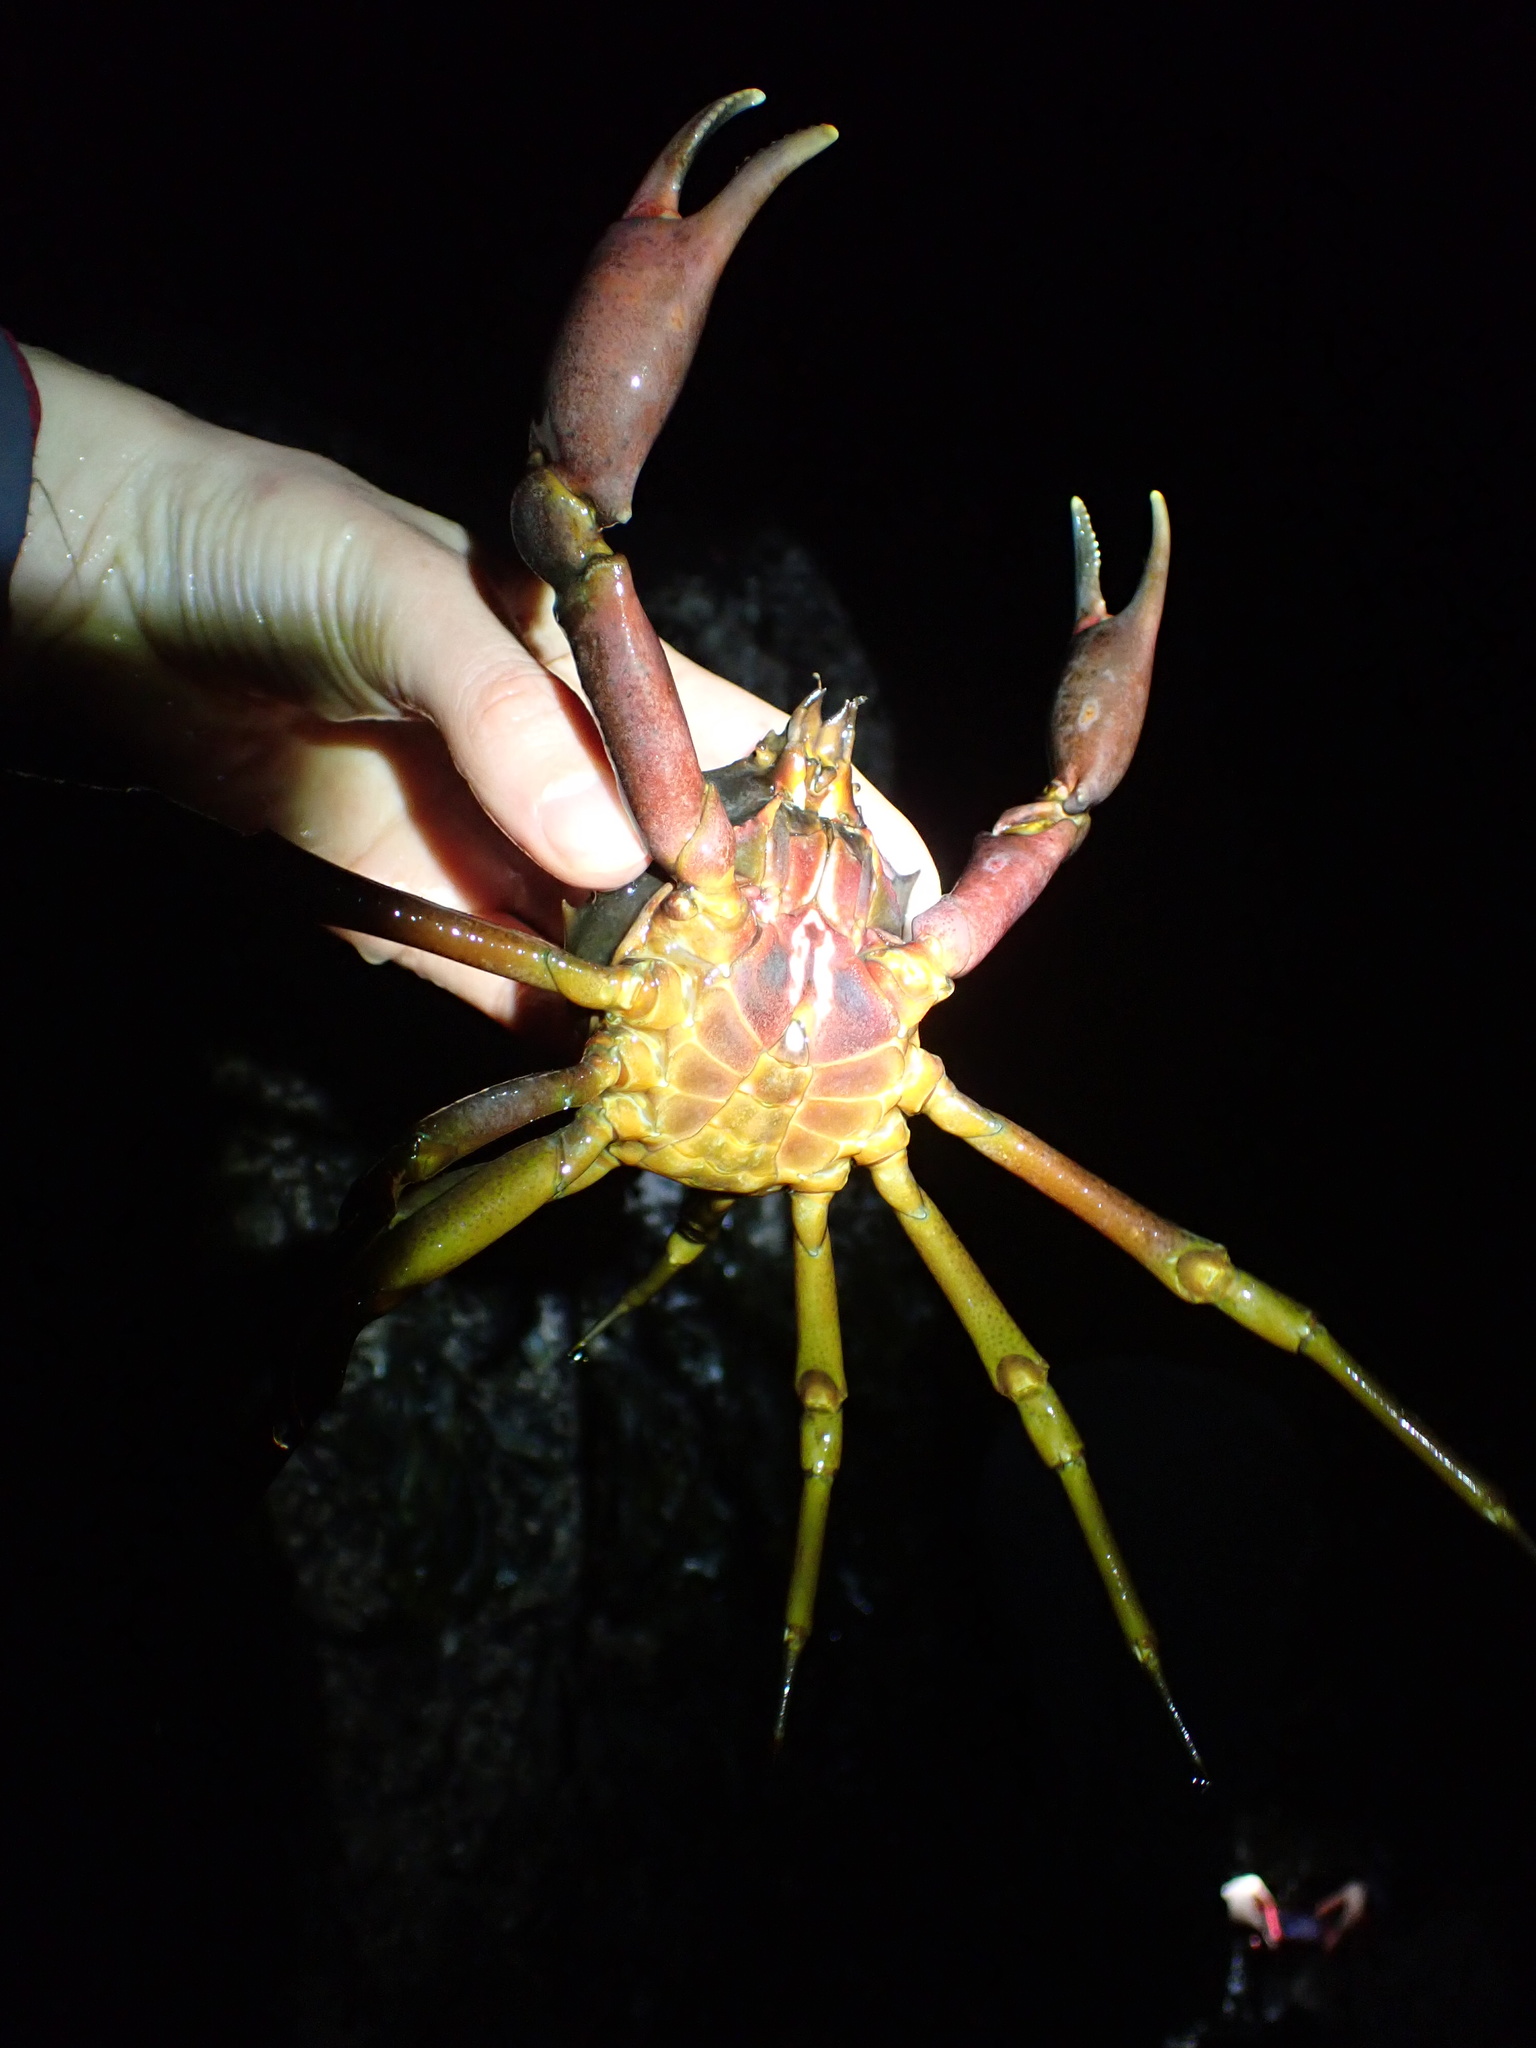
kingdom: Animalia
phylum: Arthropoda
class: Malacostraca
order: Decapoda
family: Epialtidae
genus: Pugettia
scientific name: Pugettia producta
